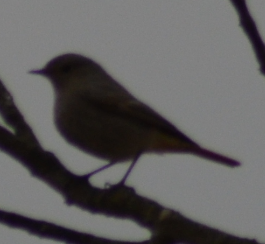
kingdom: Animalia
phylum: Chordata
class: Aves
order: Passeriformes
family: Muscicapidae
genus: Phoenicurus
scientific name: Phoenicurus ochruros
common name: Black redstart
